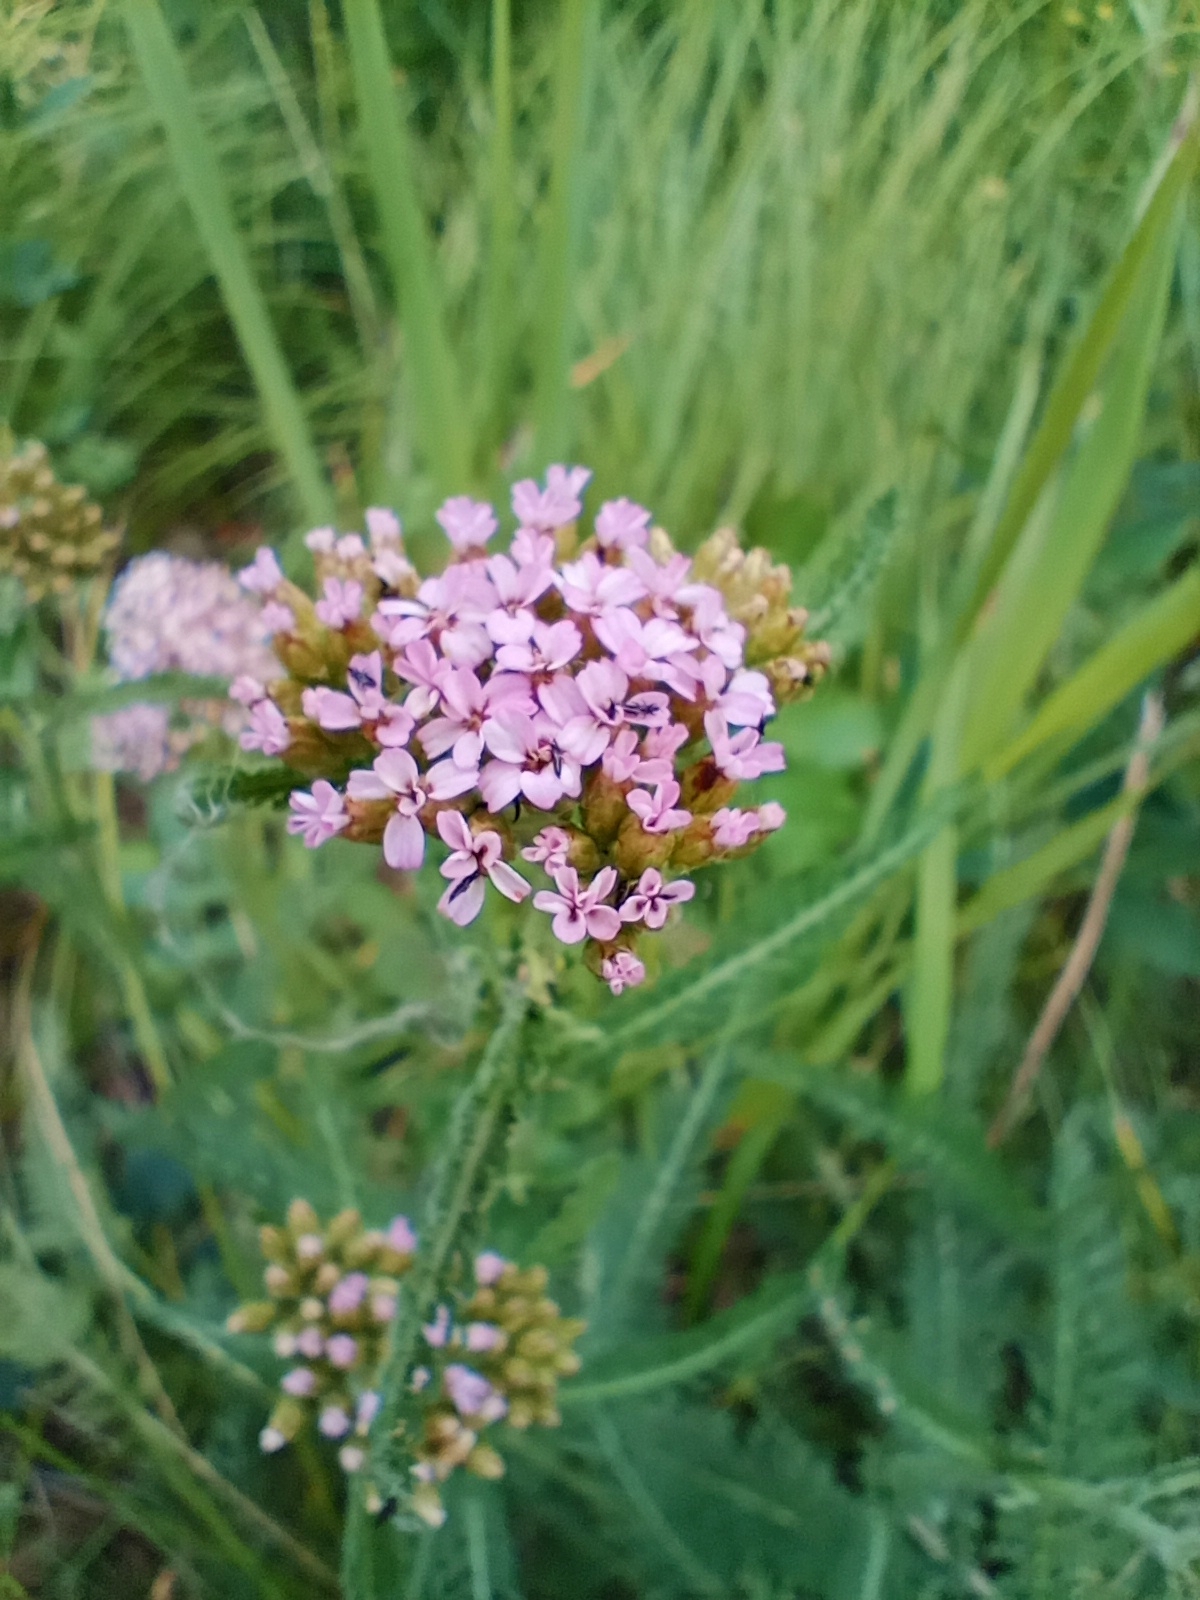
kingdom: Plantae
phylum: Tracheophyta
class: Magnoliopsida
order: Asterales
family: Asteraceae
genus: Achillea
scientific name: Achillea asiatica
